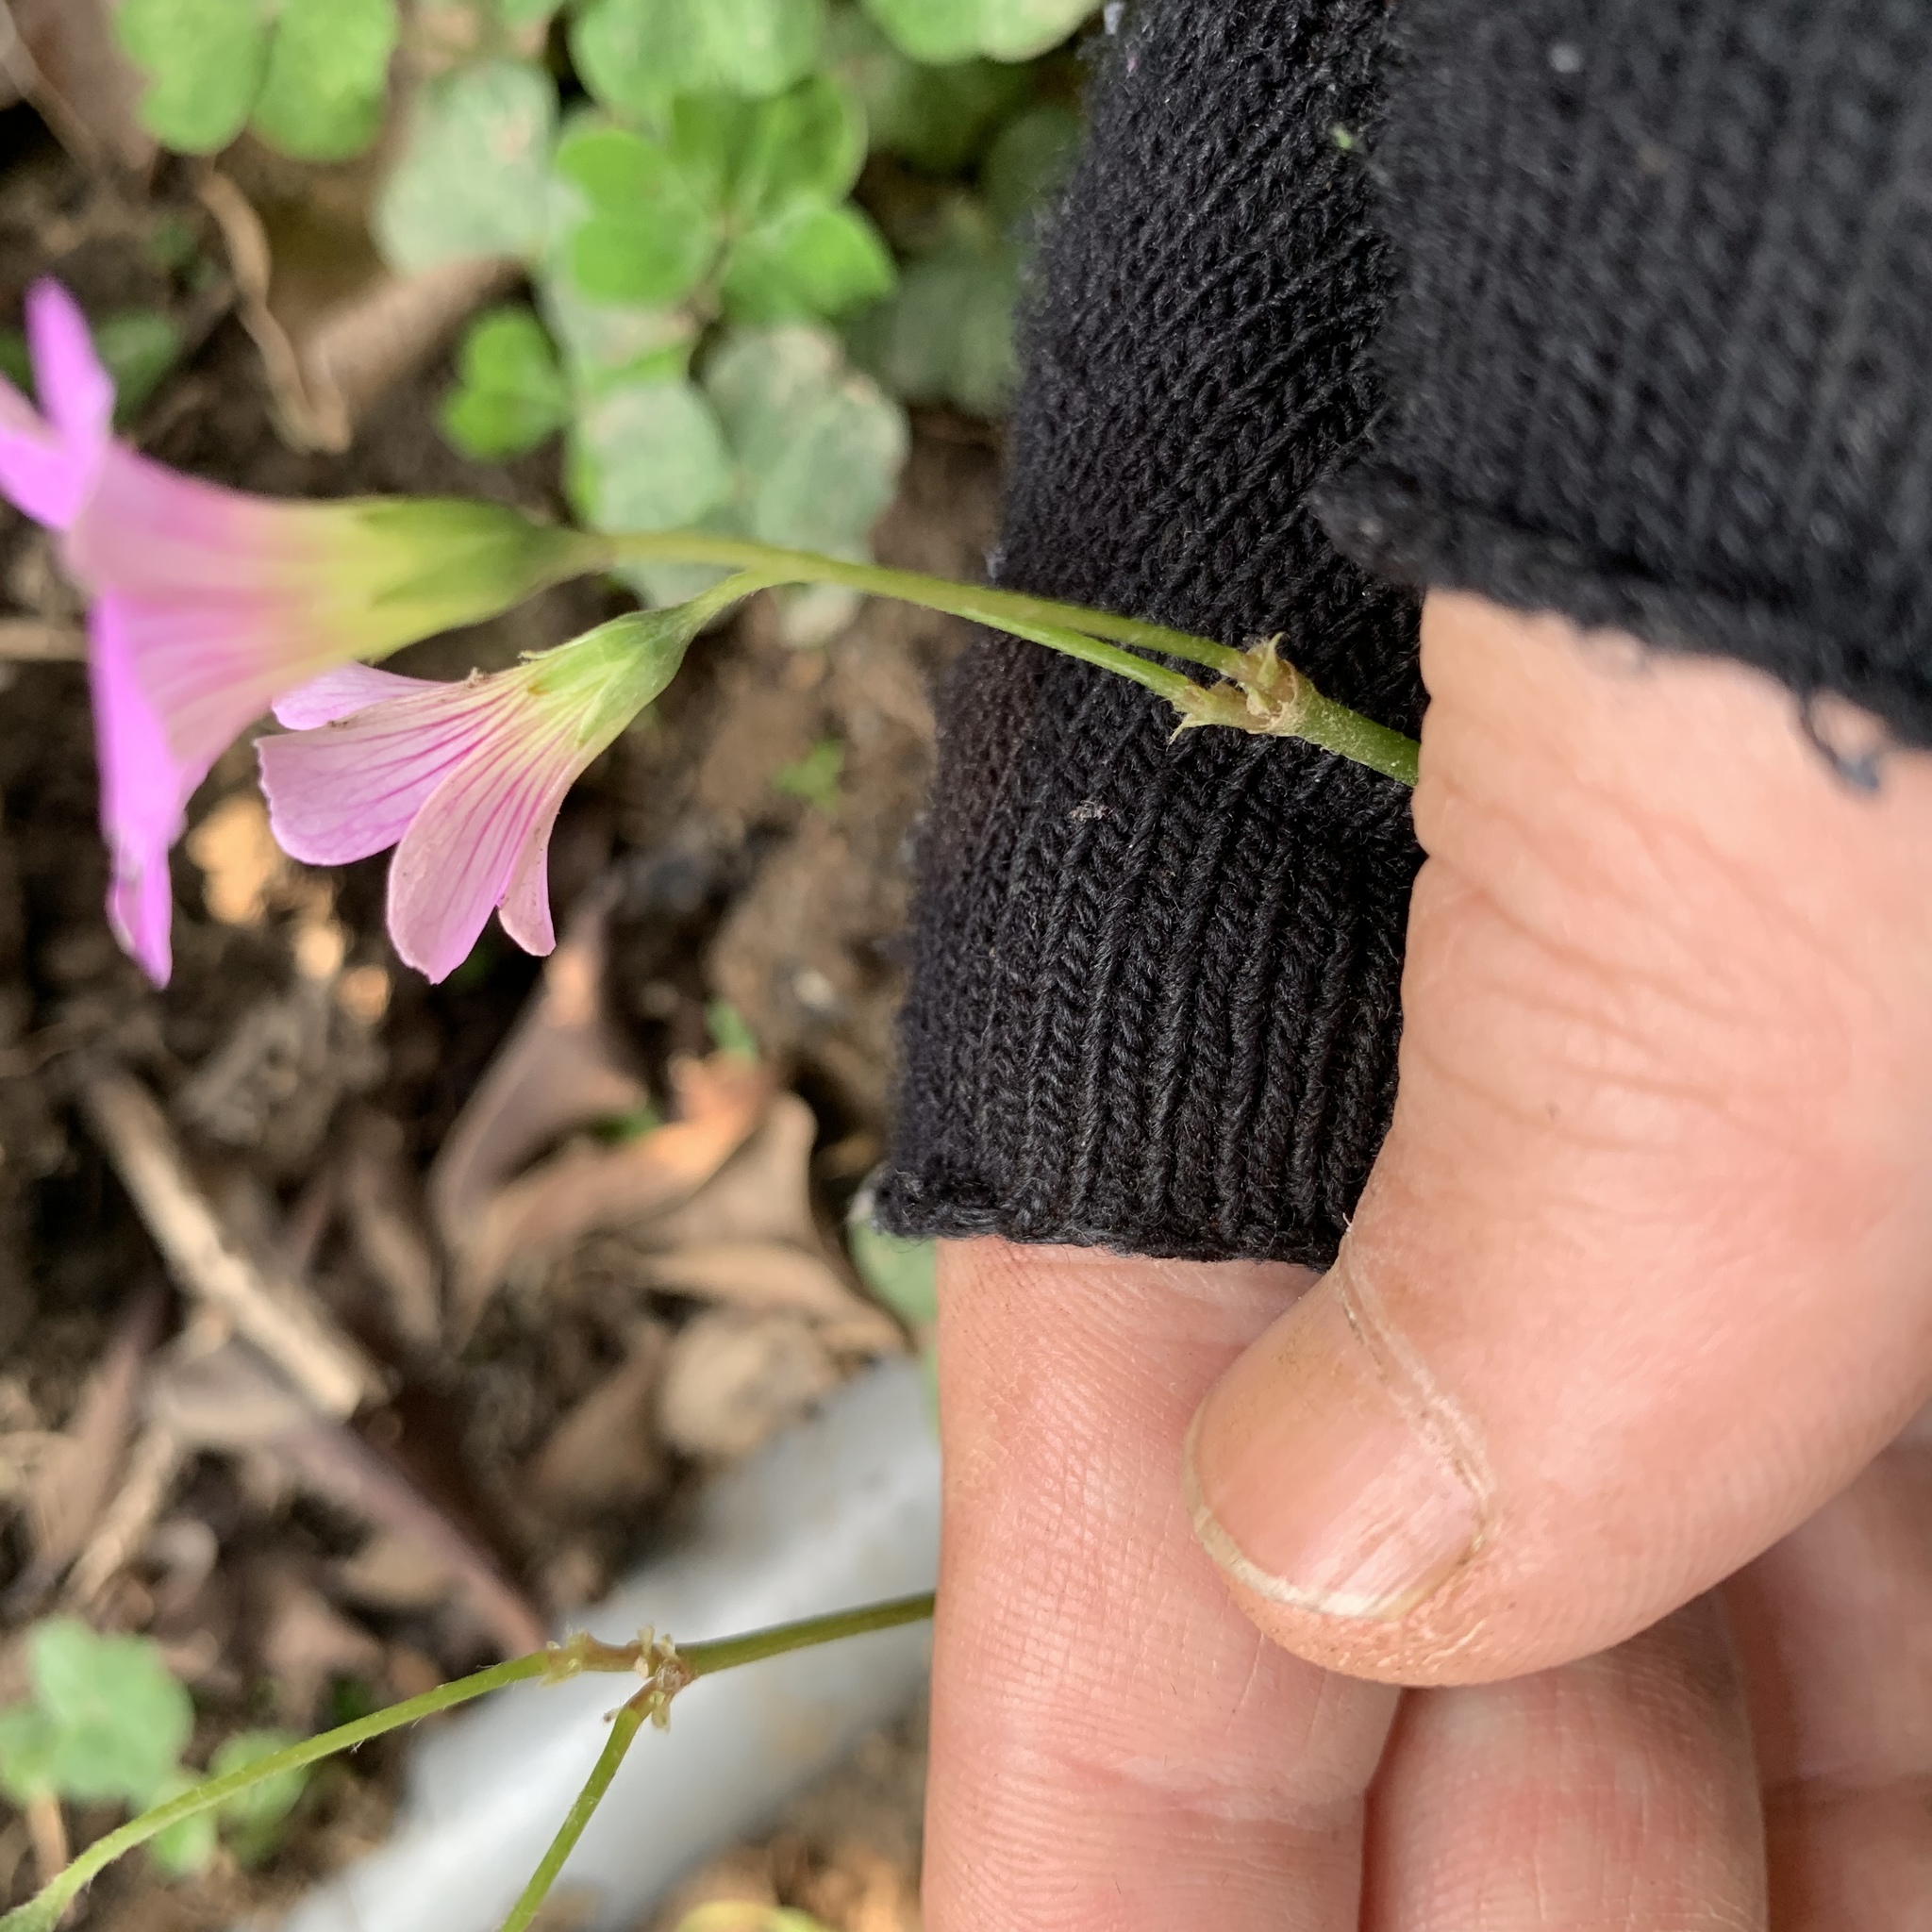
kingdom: Plantae
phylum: Tracheophyta
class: Magnoliopsida
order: Oxalidales
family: Oxalidaceae
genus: Oxalis
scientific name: Oxalis debilis
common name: Large-flowered pink-sorrel
